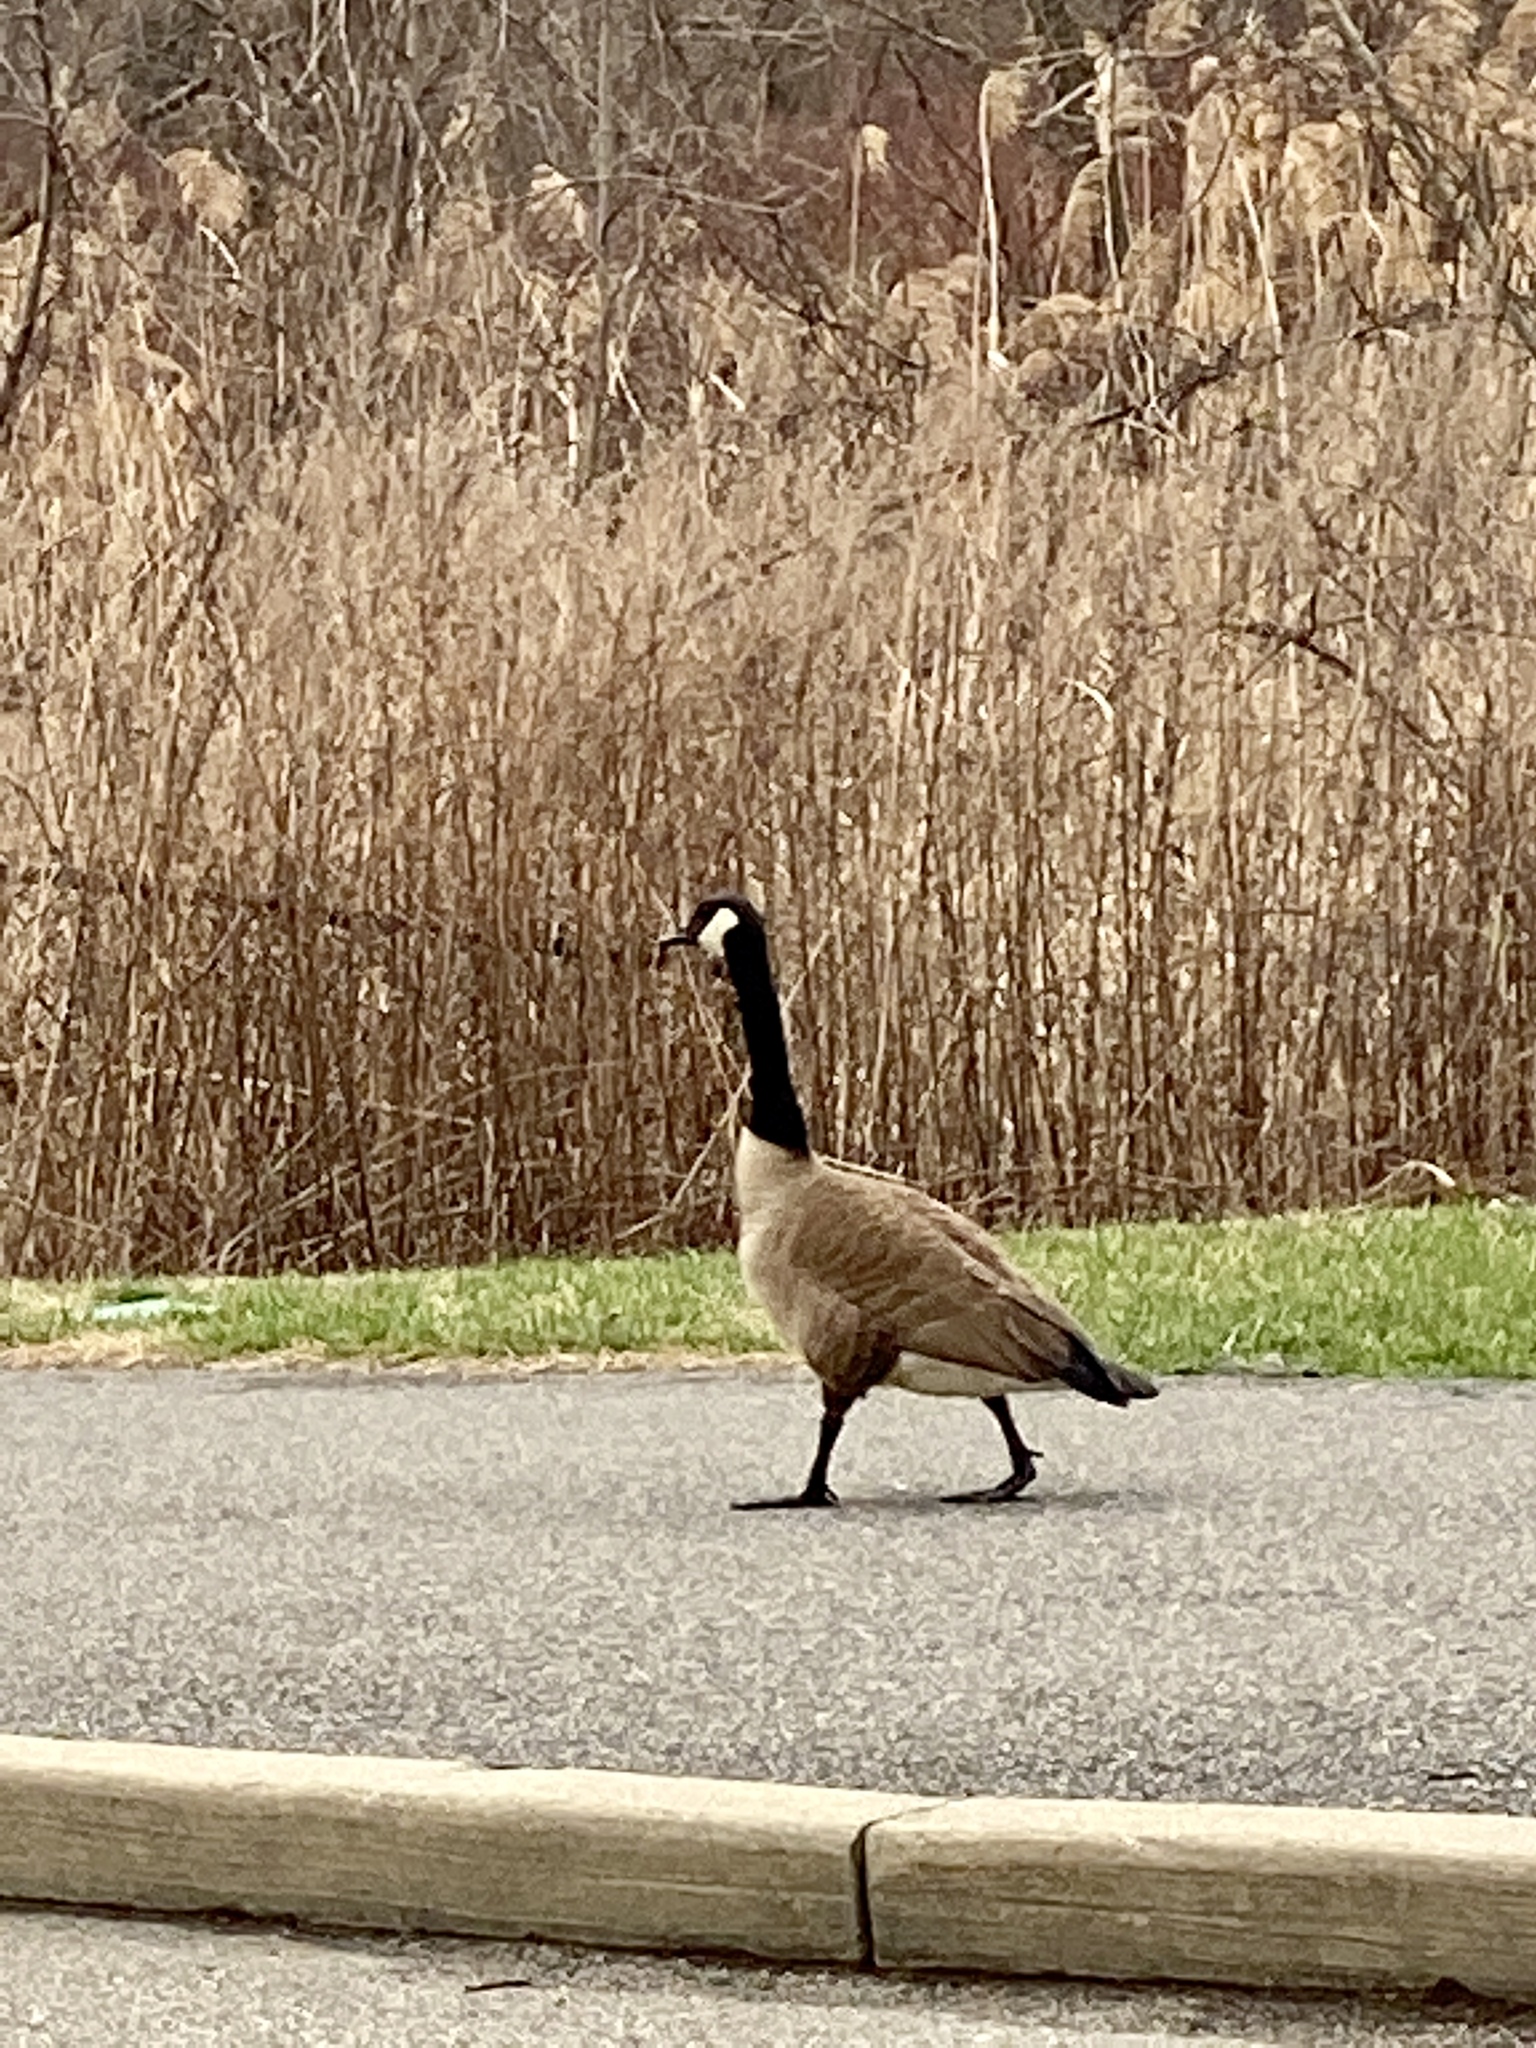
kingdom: Animalia
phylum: Chordata
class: Aves
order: Anseriformes
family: Anatidae
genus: Branta
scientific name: Branta canadensis
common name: Canada goose
